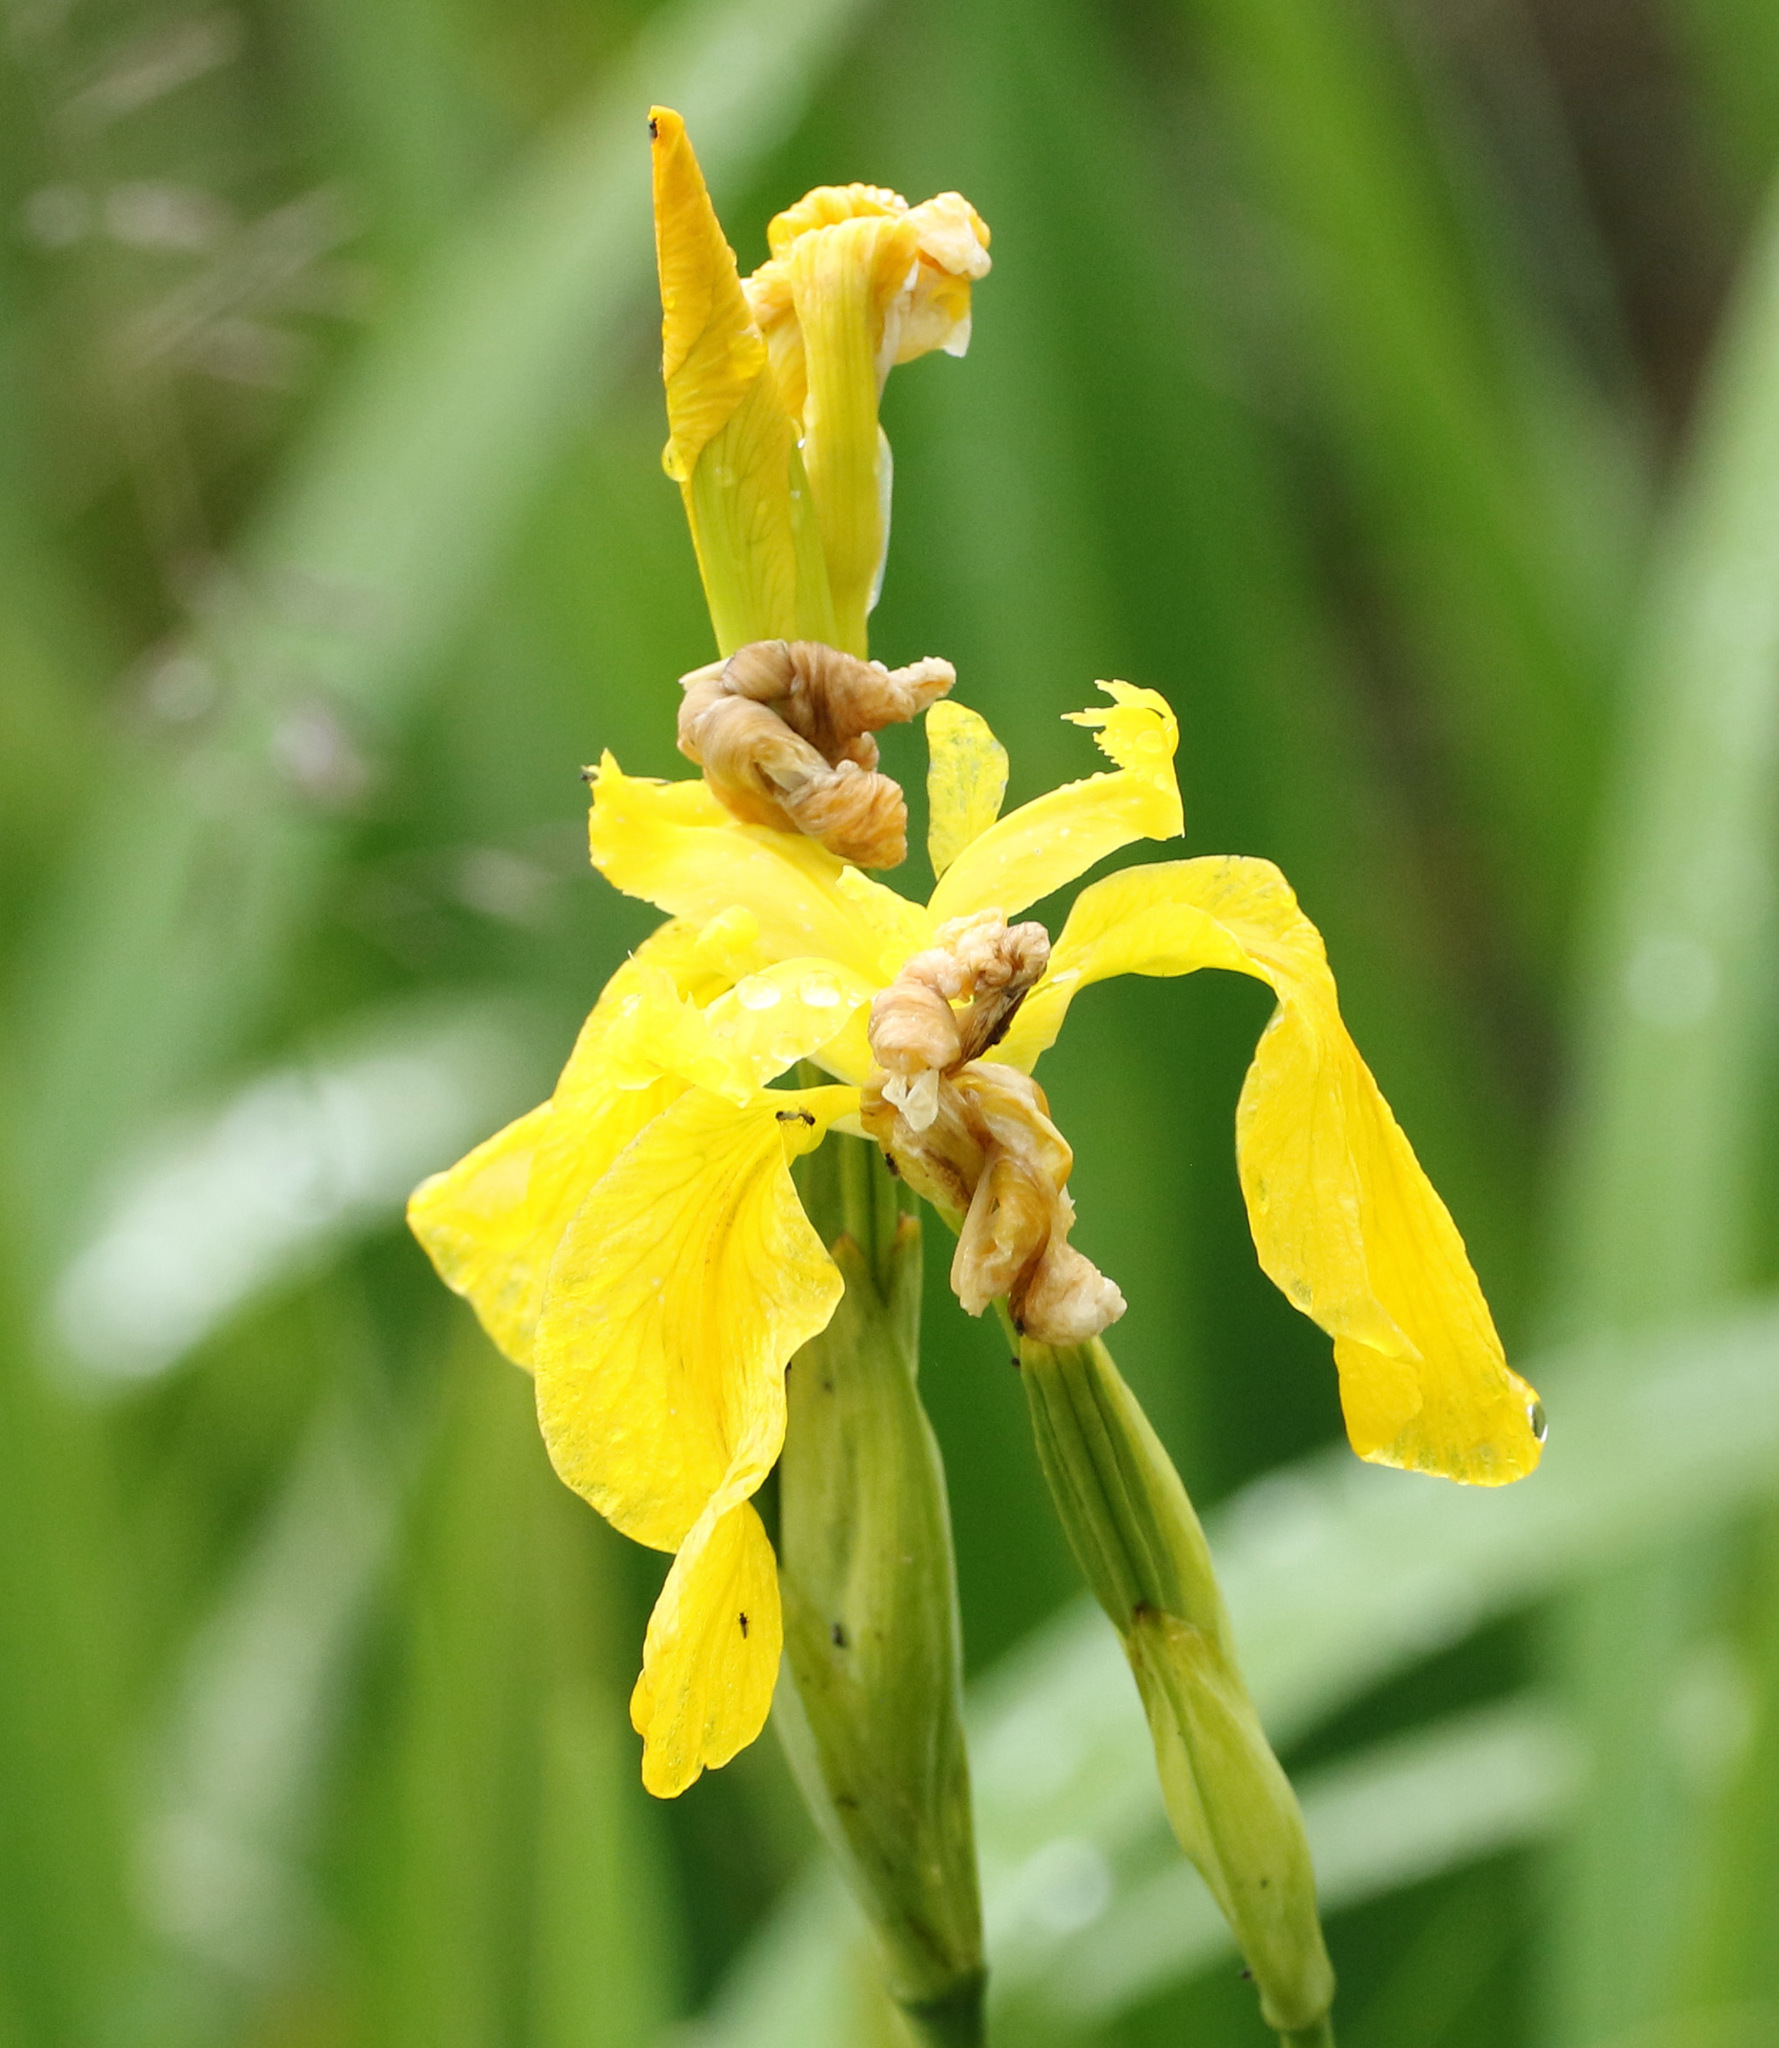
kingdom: Plantae
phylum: Tracheophyta
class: Liliopsida
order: Asparagales
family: Iridaceae
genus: Iris
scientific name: Iris pseudacorus
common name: Yellow flag
